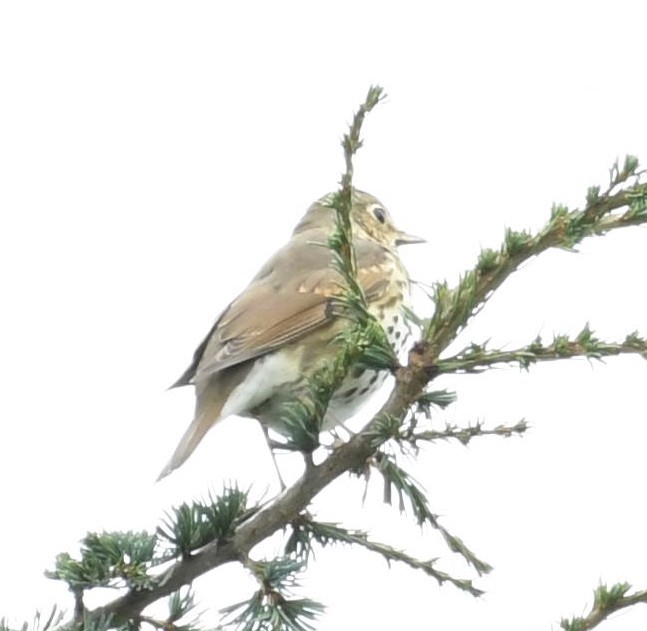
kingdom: Animalia
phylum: Chordata
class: Aves
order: Passeriformes
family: Turdidae
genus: Turdus
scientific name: Turdus philomelos
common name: Song thrush
